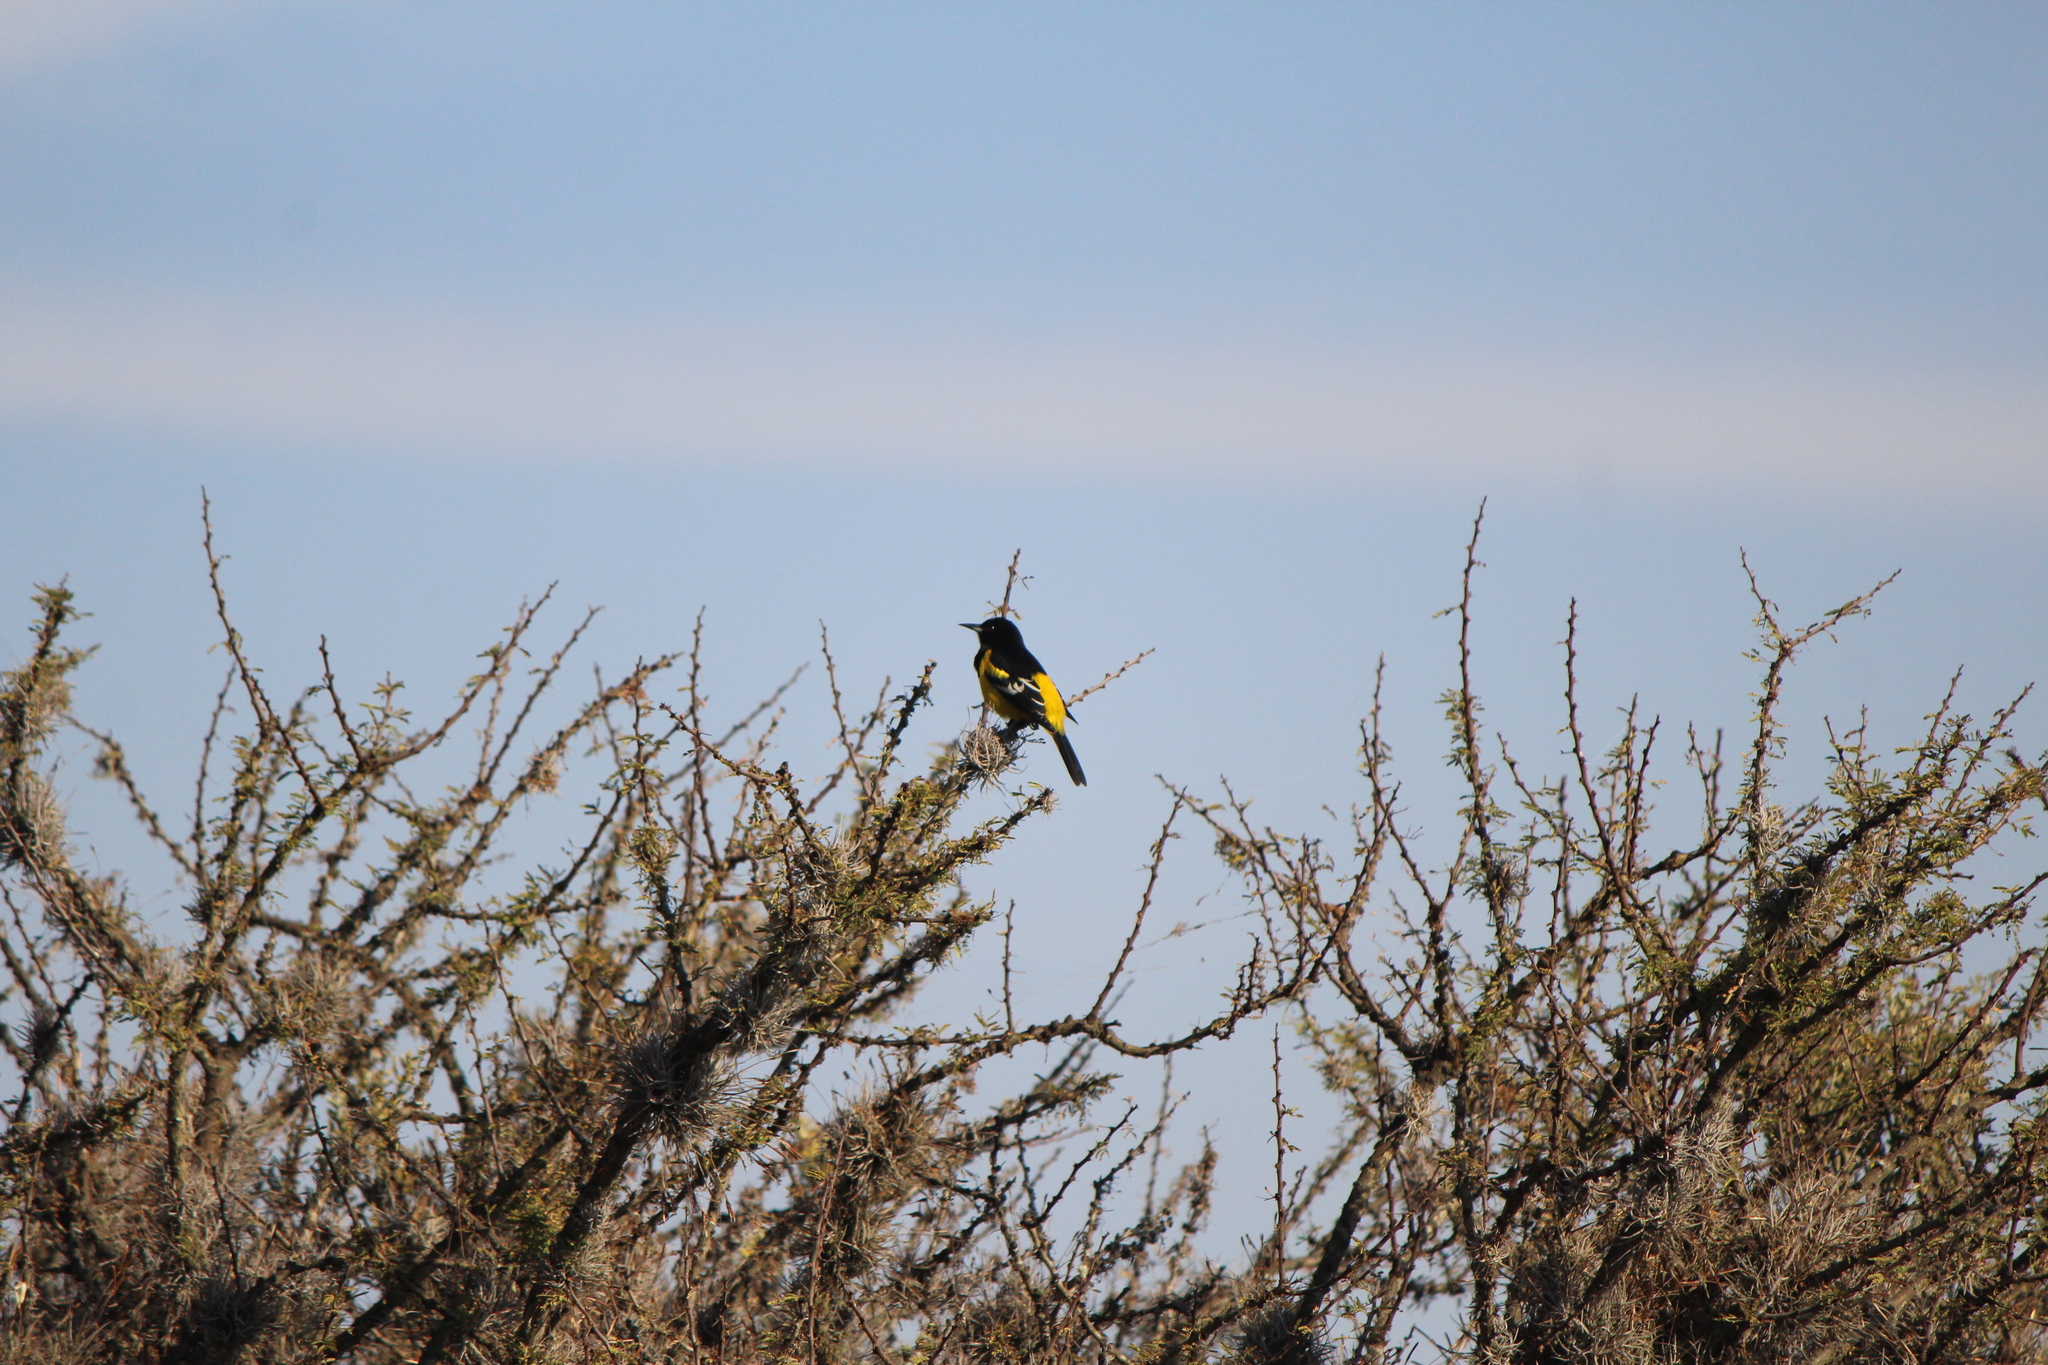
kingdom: Animalia
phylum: Chordata
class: Aves
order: Passeriformes
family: Icteridae
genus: Icterus
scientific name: Icterus parisorum
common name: Scott's oriole
